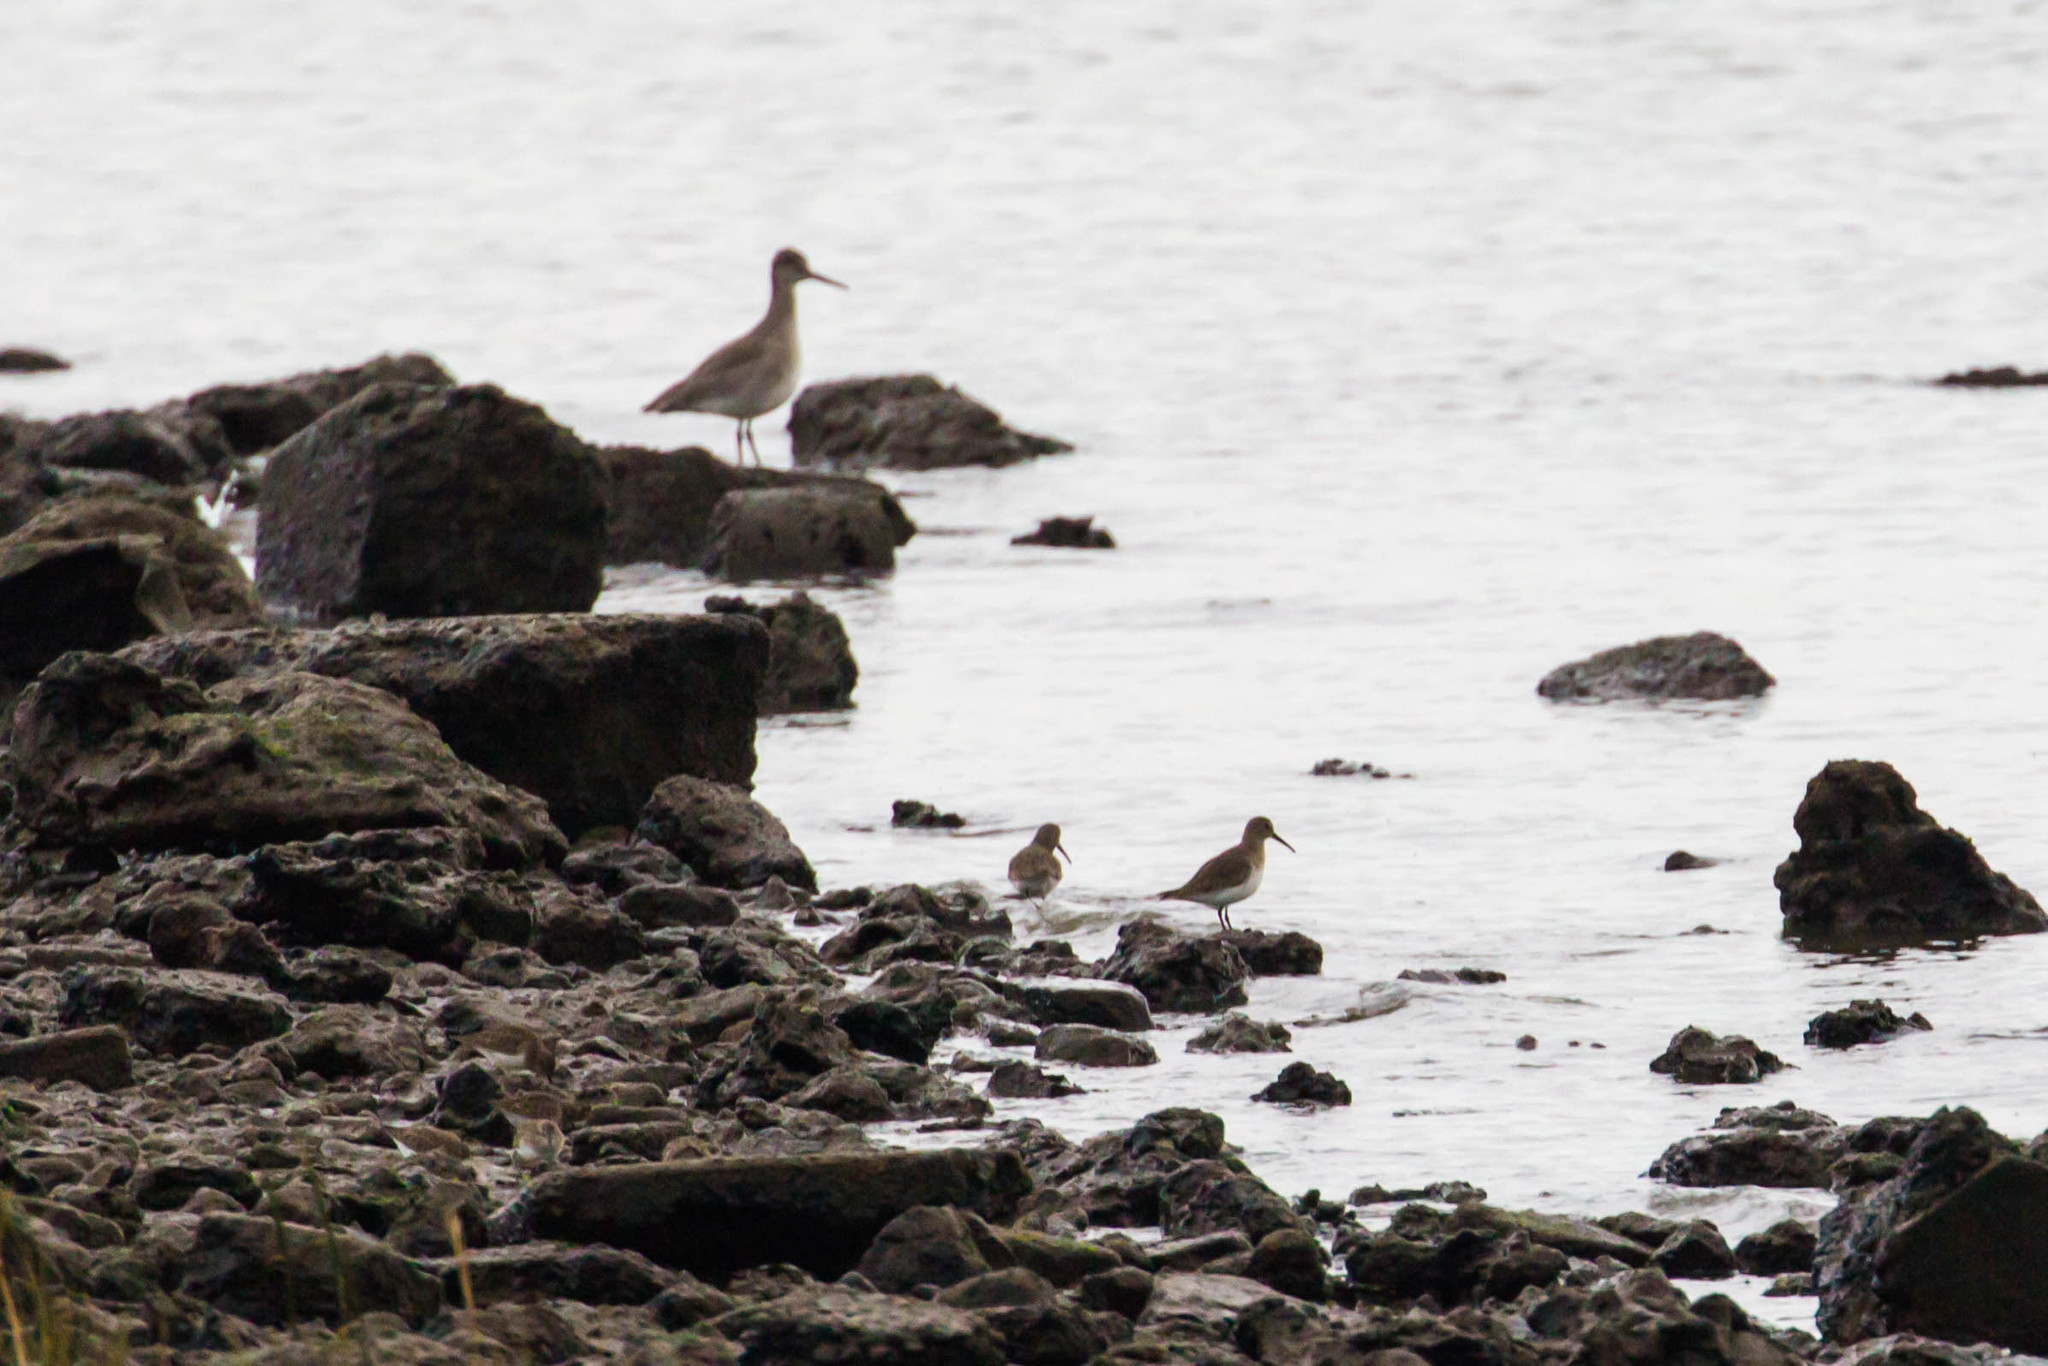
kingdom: Animalia
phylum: Chordata
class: Aves
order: Charadriiformes
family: Scolopacidae
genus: Calidris
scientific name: Calidris alpina
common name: Dunlin
